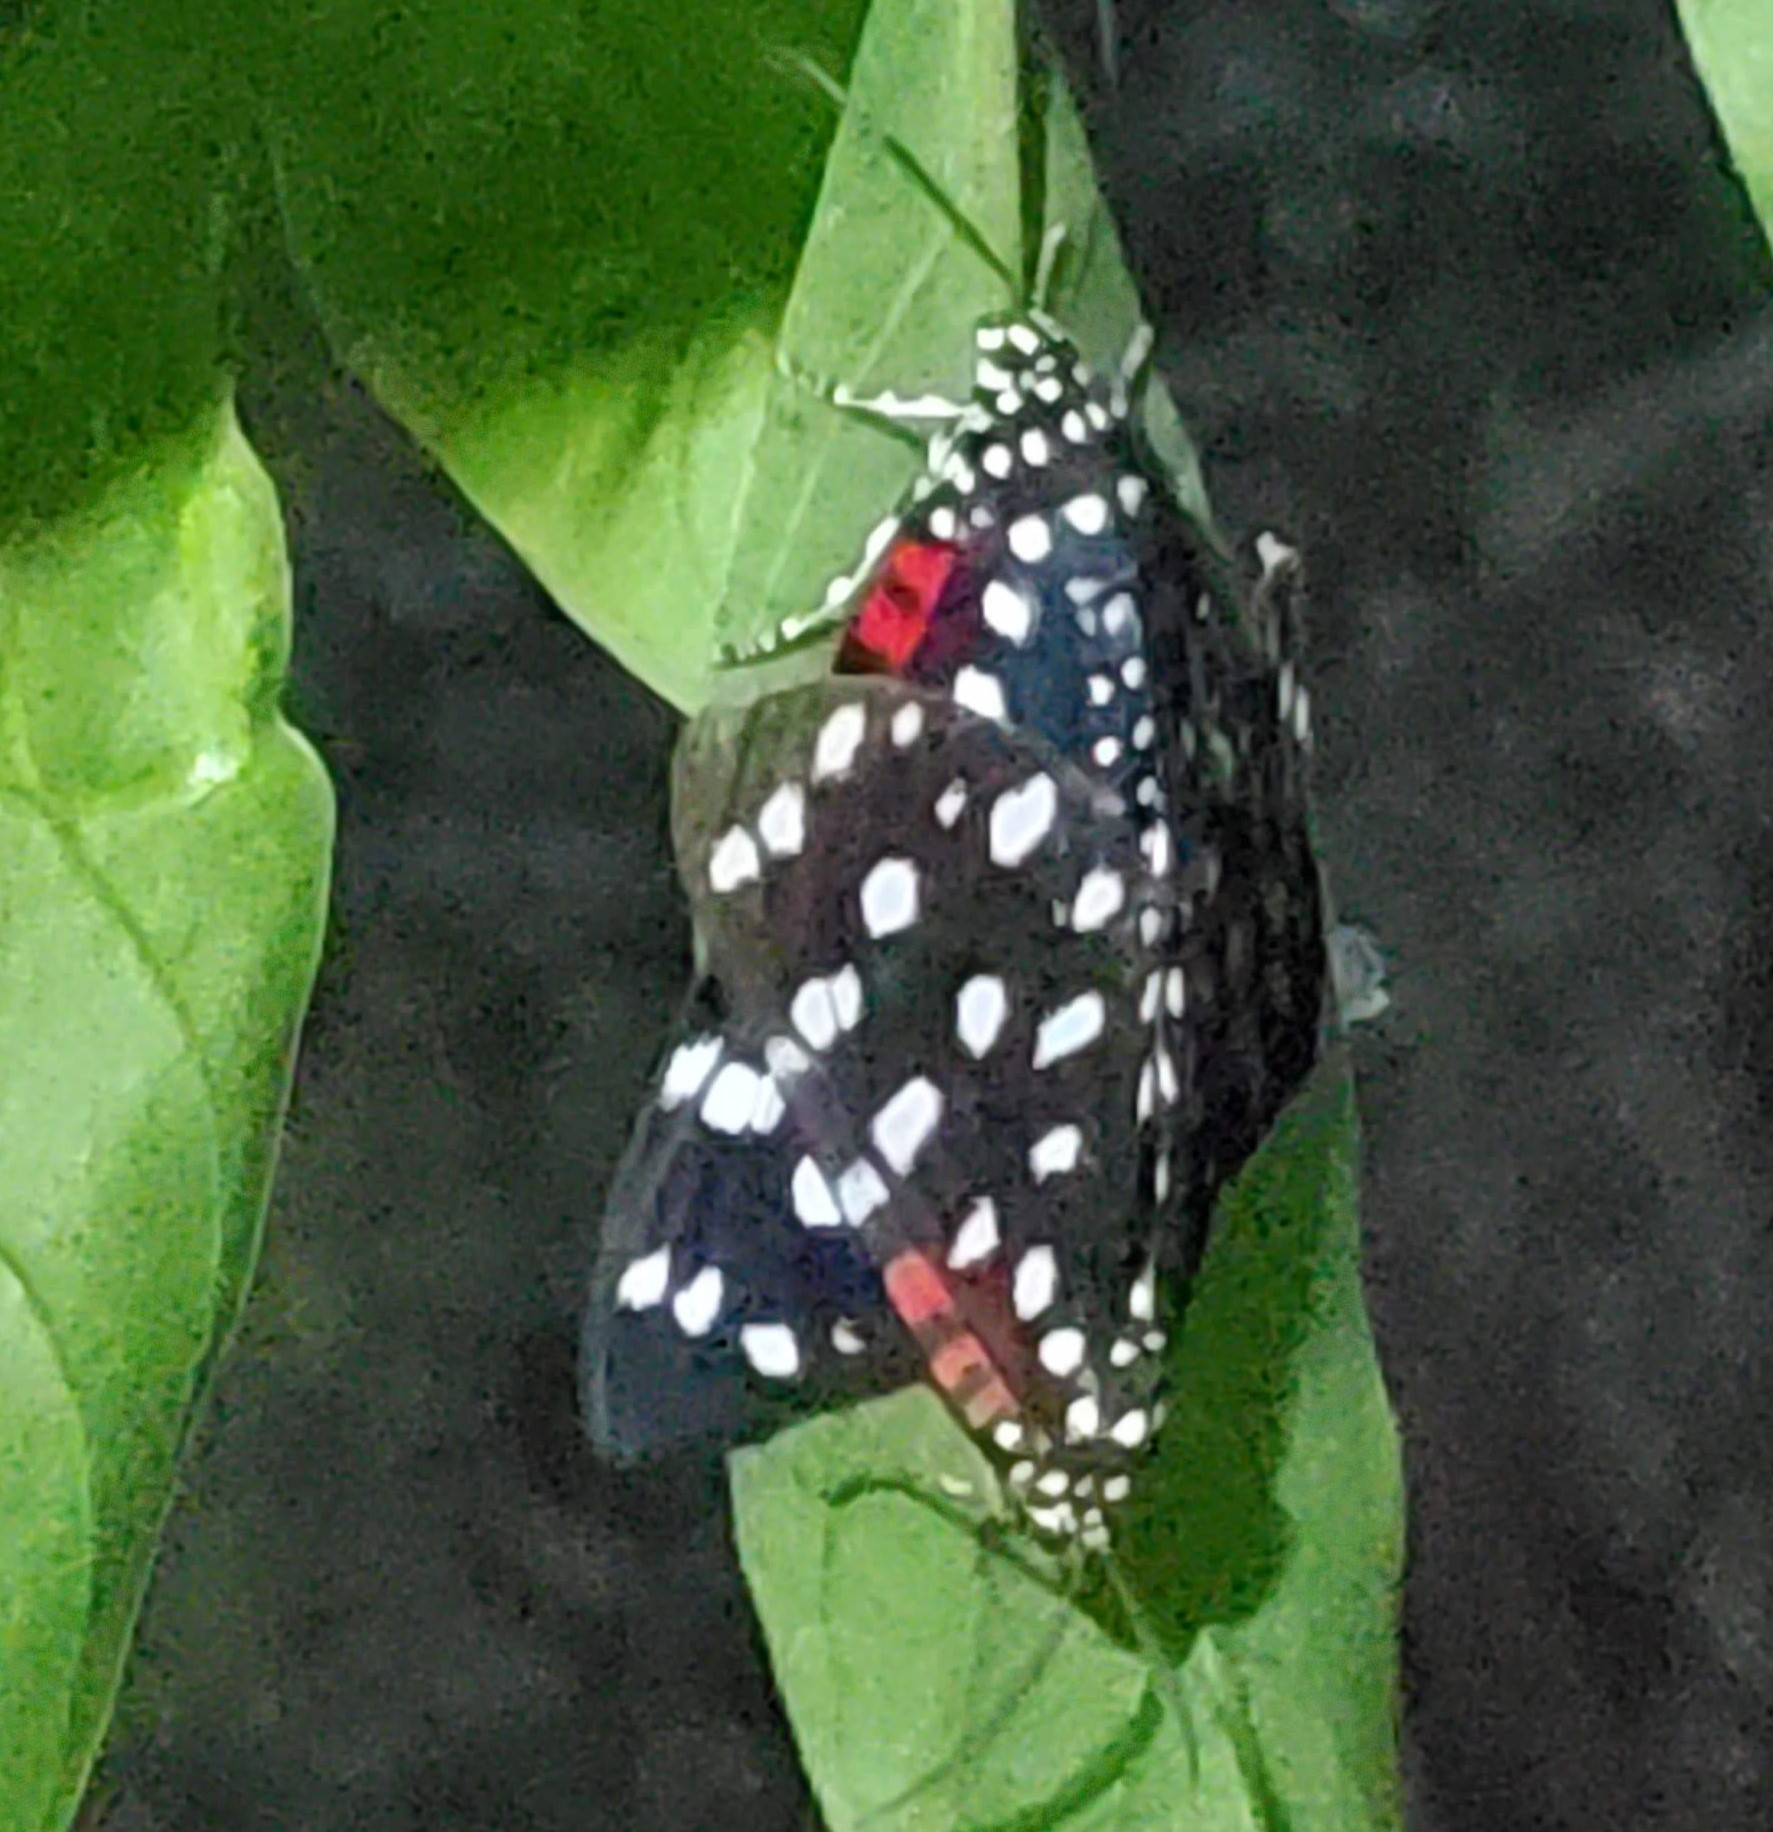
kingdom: Animalia
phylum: Arthropoda
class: Insecta
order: Lepidoptera
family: Erebidae
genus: Composia
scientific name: Composia credula
